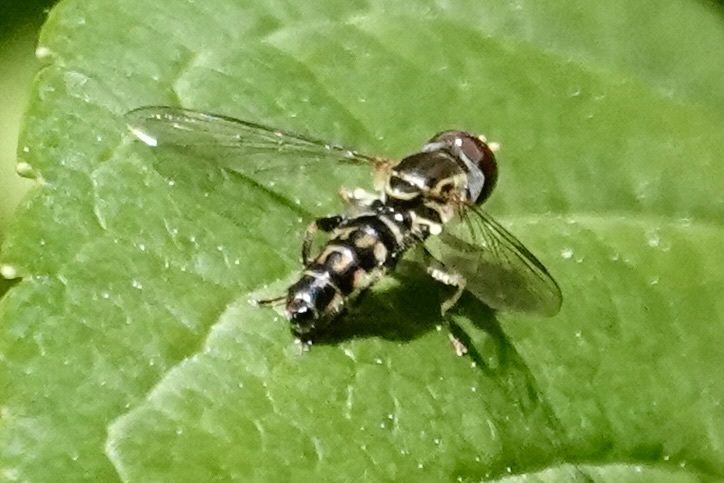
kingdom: Animalia
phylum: Arthropoda
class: Insecta
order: Diptera
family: Syrphidae
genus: Toxomerus
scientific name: Toxomerus geminatus
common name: Eastern calligrapher
